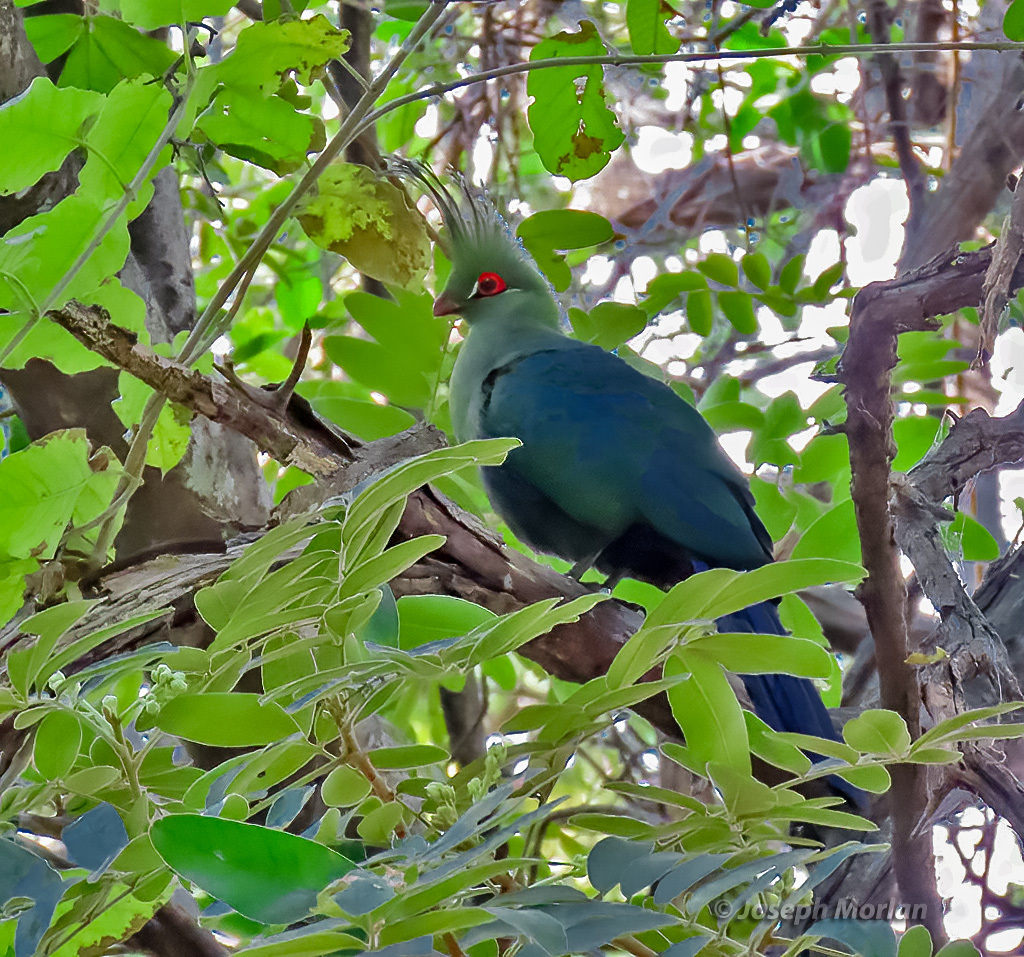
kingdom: Animalia
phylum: Chordata
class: Aves
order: Musophagiformes
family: Musophagidae
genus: Tauraco
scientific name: Tauraco schalowi
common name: Schalow's turaco
